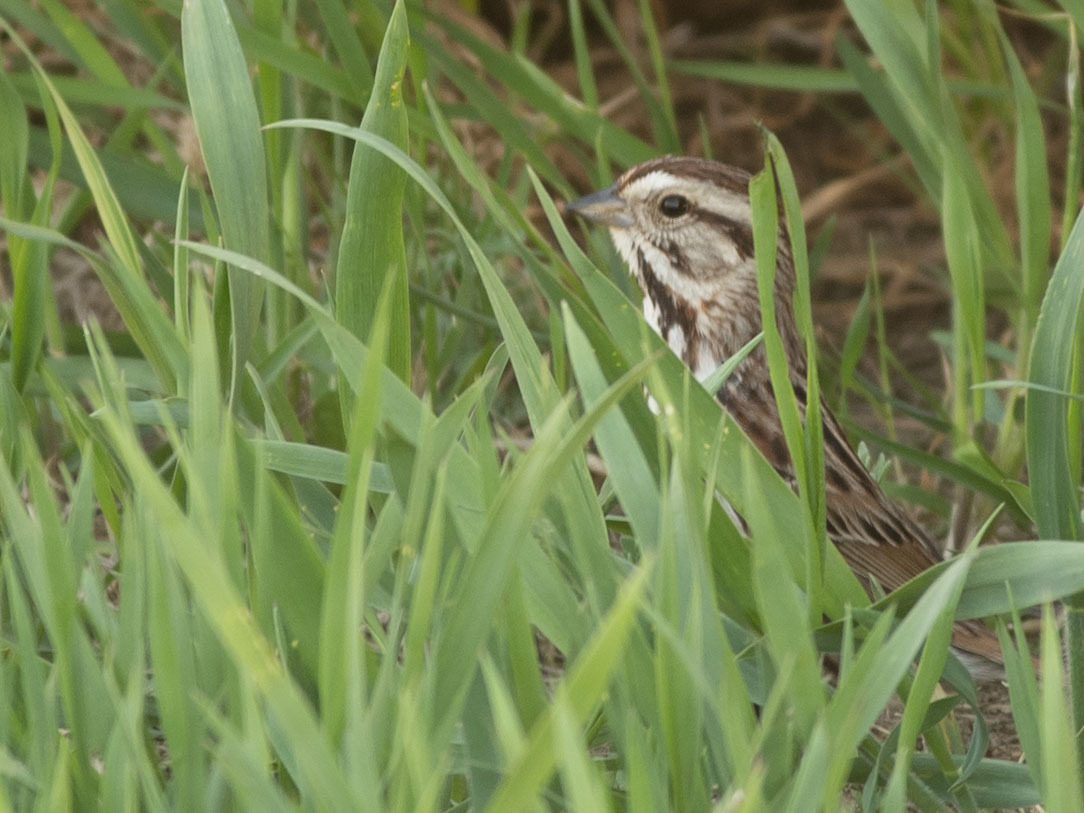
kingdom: Animalia
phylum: Chordata
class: Aves
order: Passeriformes
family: Passerellidae
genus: Melospiza
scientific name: Melospiza melodia
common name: Song sparrow
